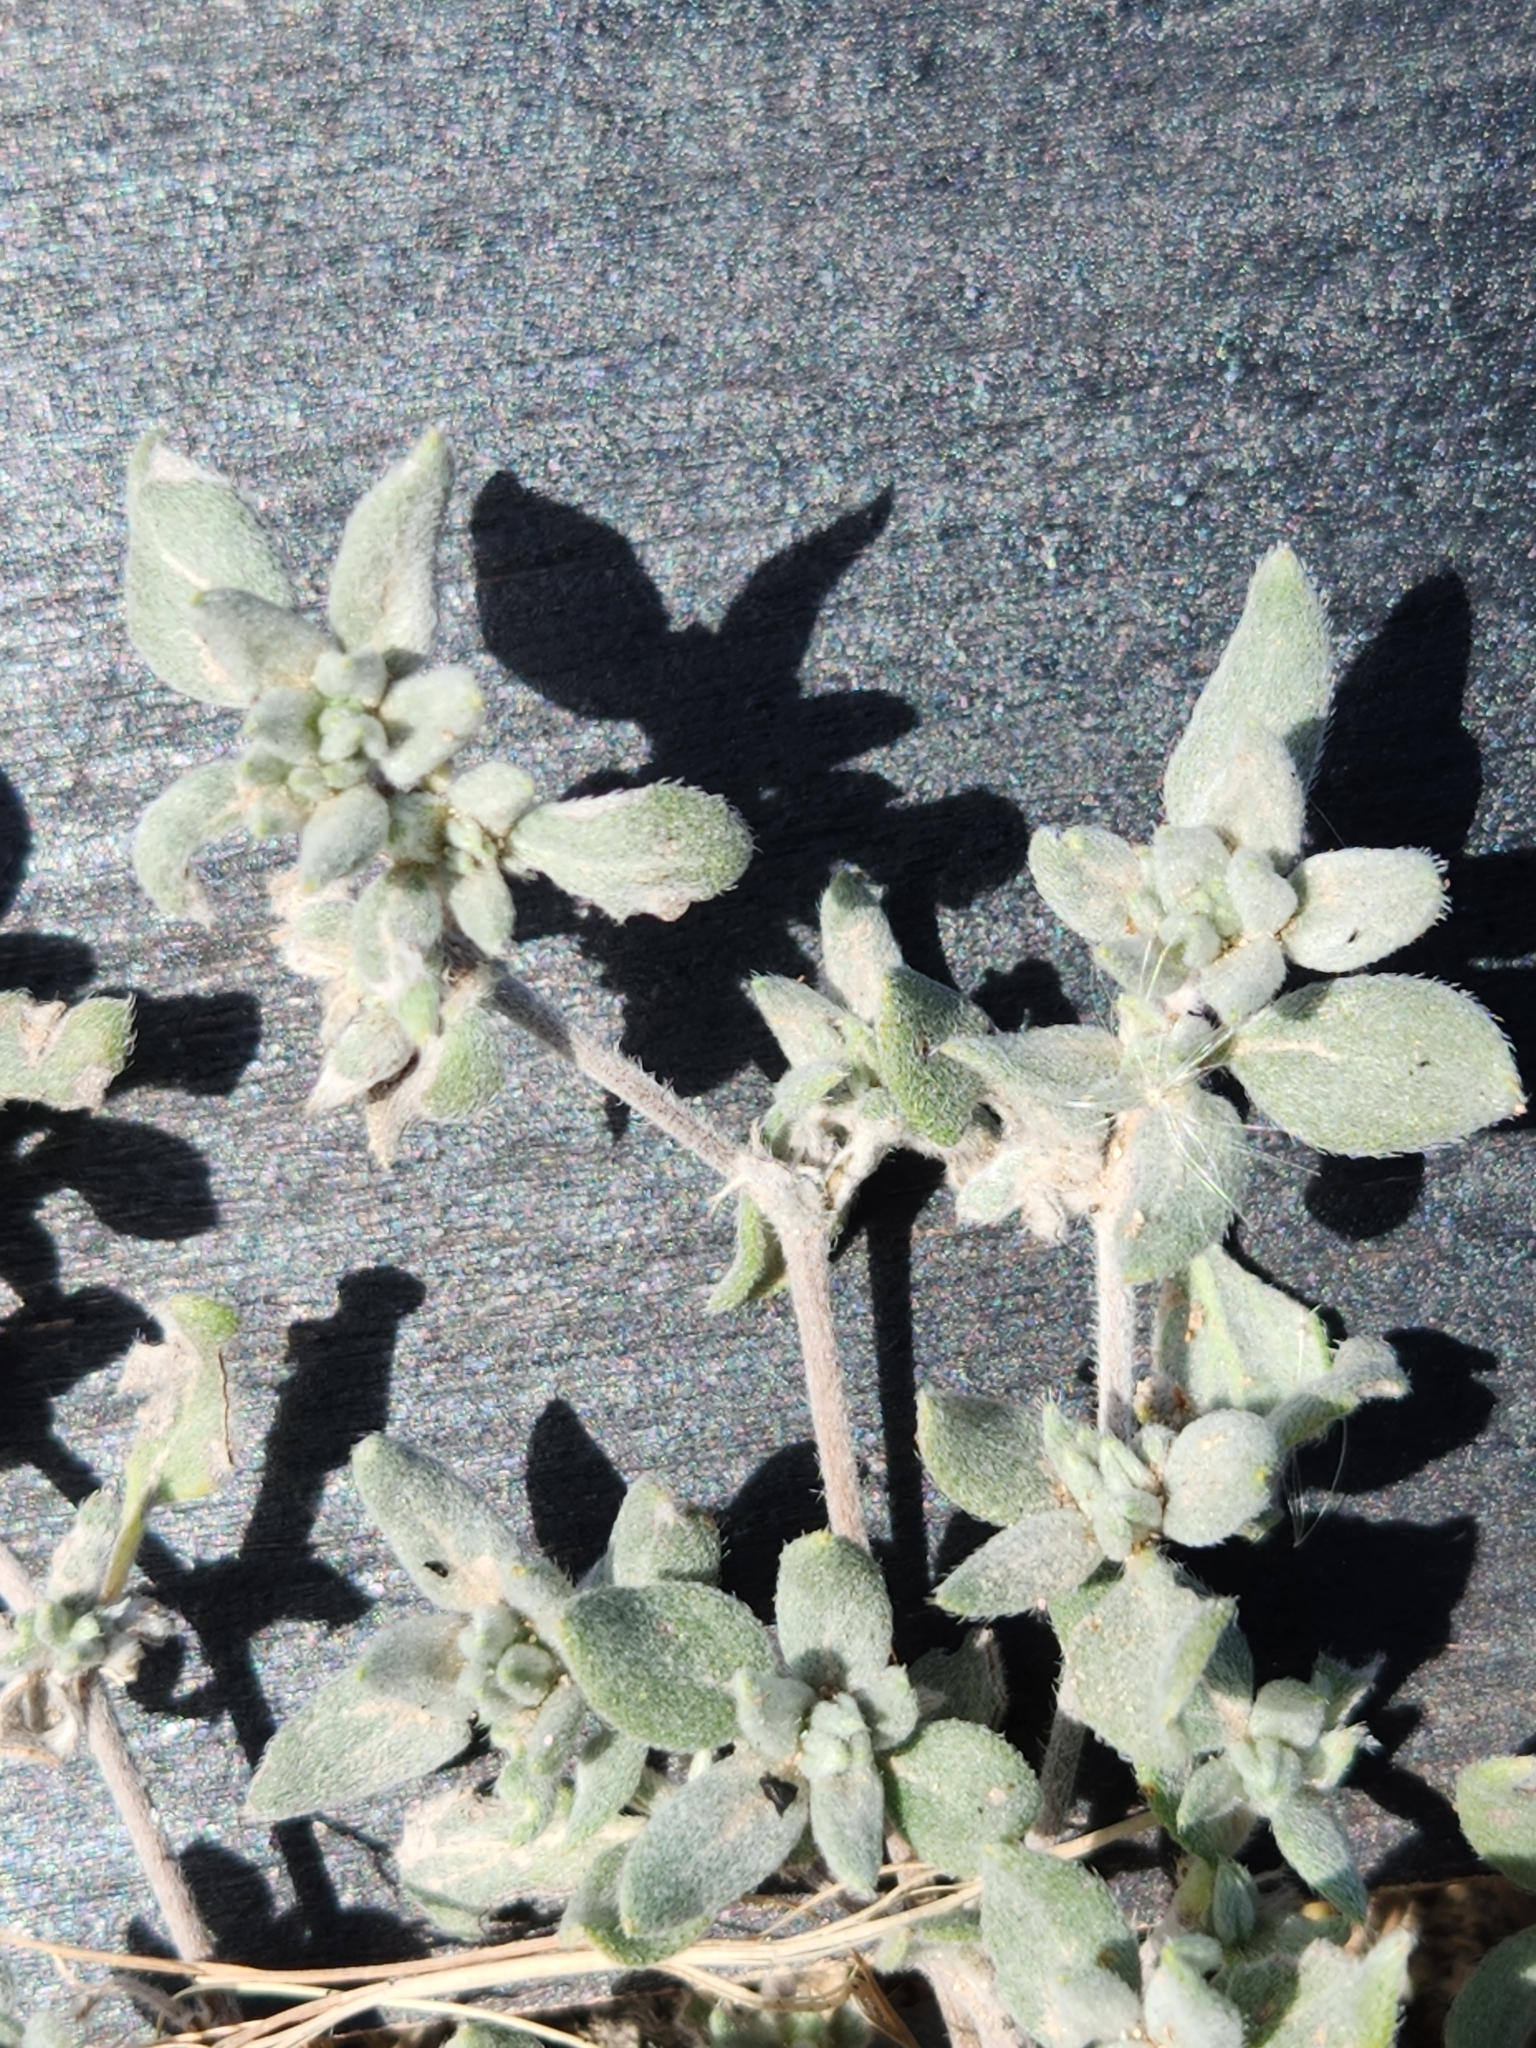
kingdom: Plantae
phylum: Tracheophyta
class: Magnoliopsida
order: Boraginales
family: Ehretiaceae
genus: Tiquilia
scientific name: Tiquilia canescens
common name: Hairy tiquilia
